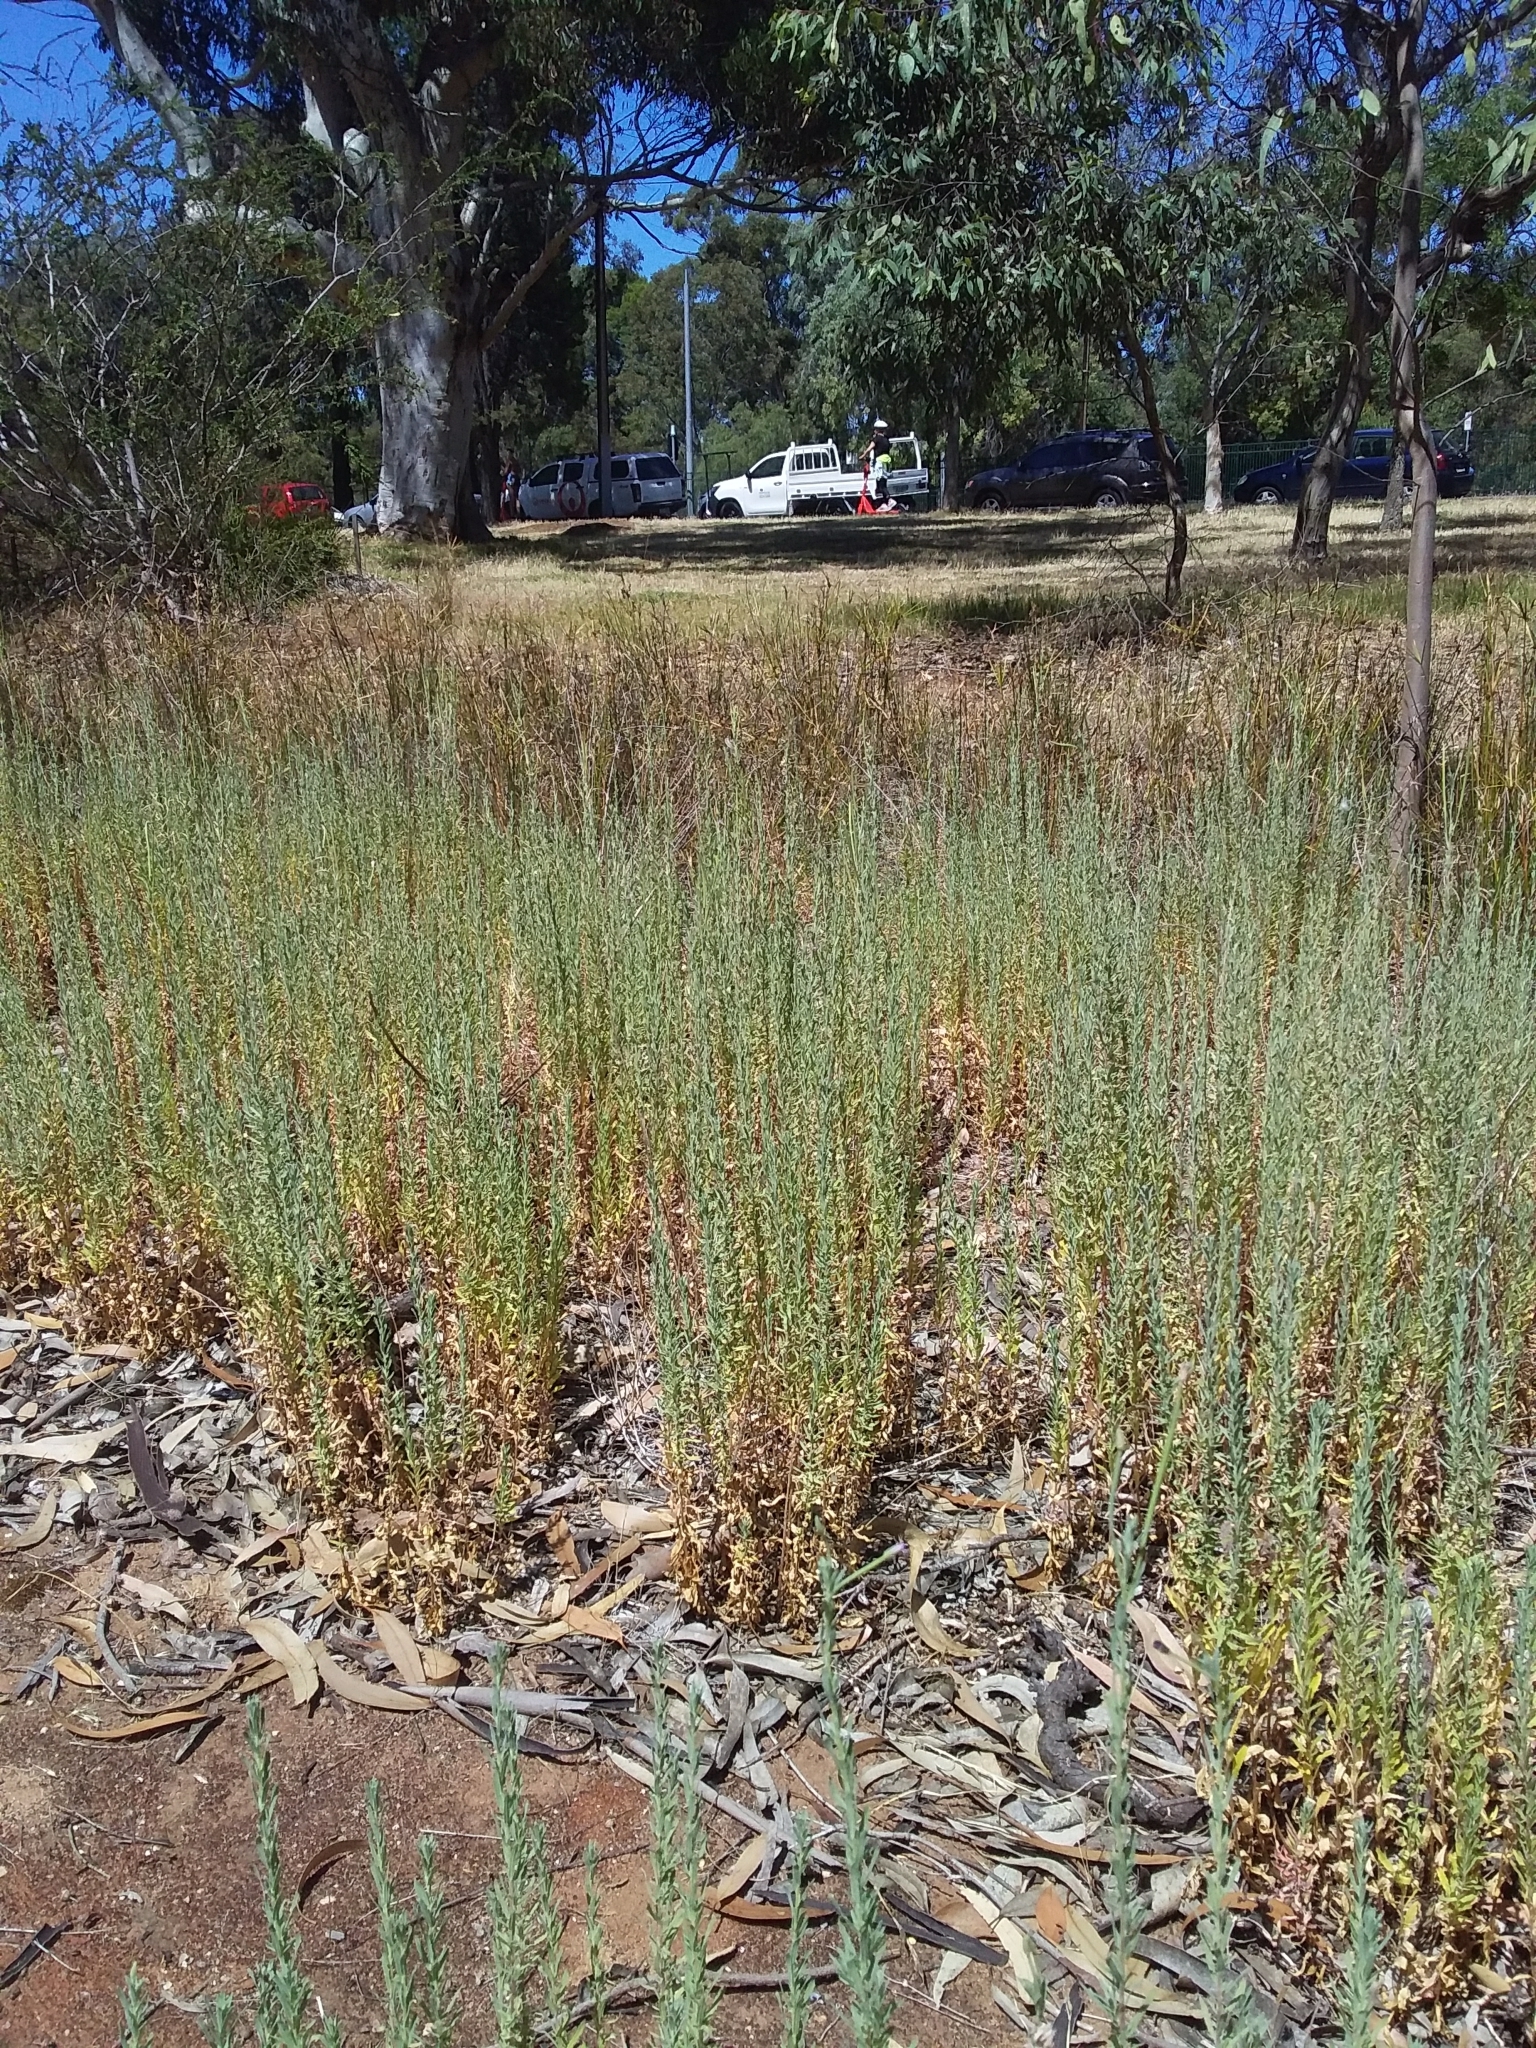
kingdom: Plantae
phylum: Tracheophyta
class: Magnoliopsida
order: Myrtales
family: Onagraceae
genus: Epilobium
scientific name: Epilobium hirtigerum
